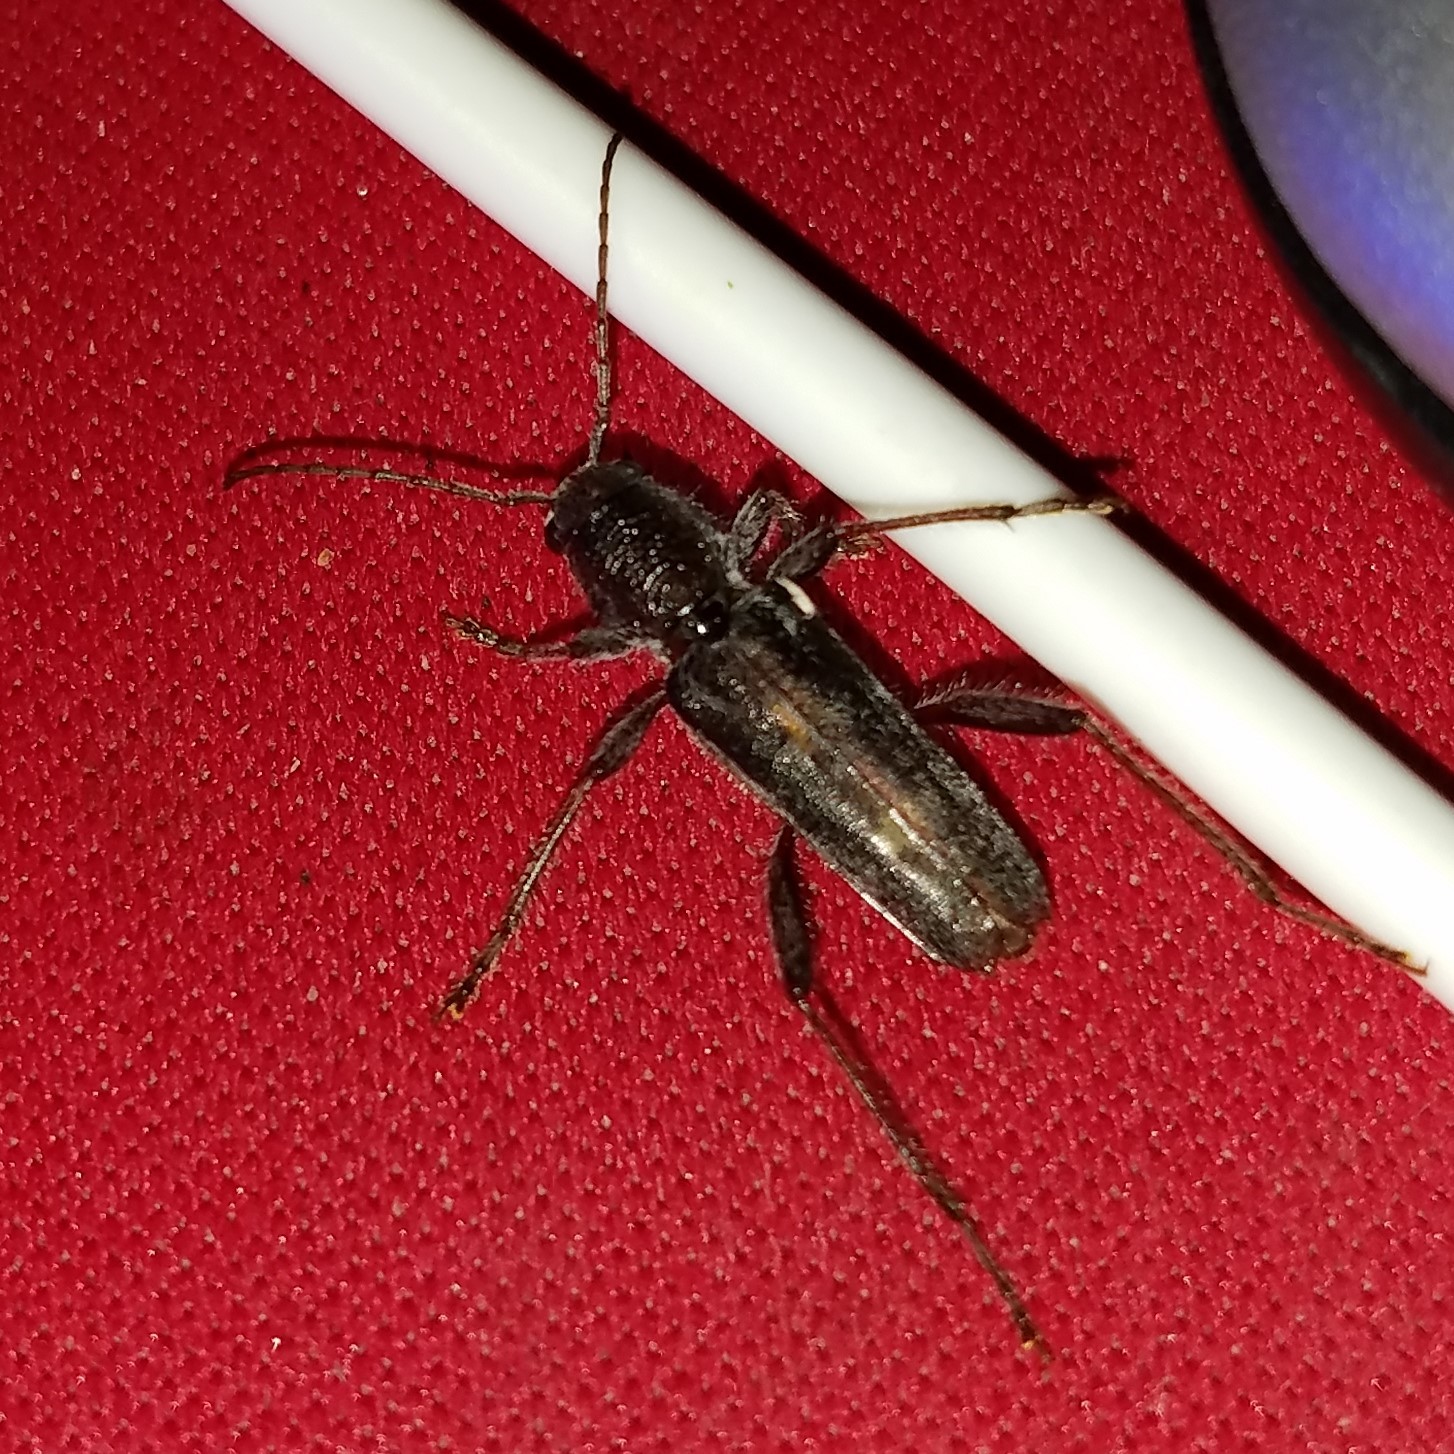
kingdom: Animalia
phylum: Arthropoda
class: Insecta
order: Coleoptera
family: Cerambycidae
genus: Xylotrechus
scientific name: Xylotrechus sagittatus
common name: Arrowhead borer
